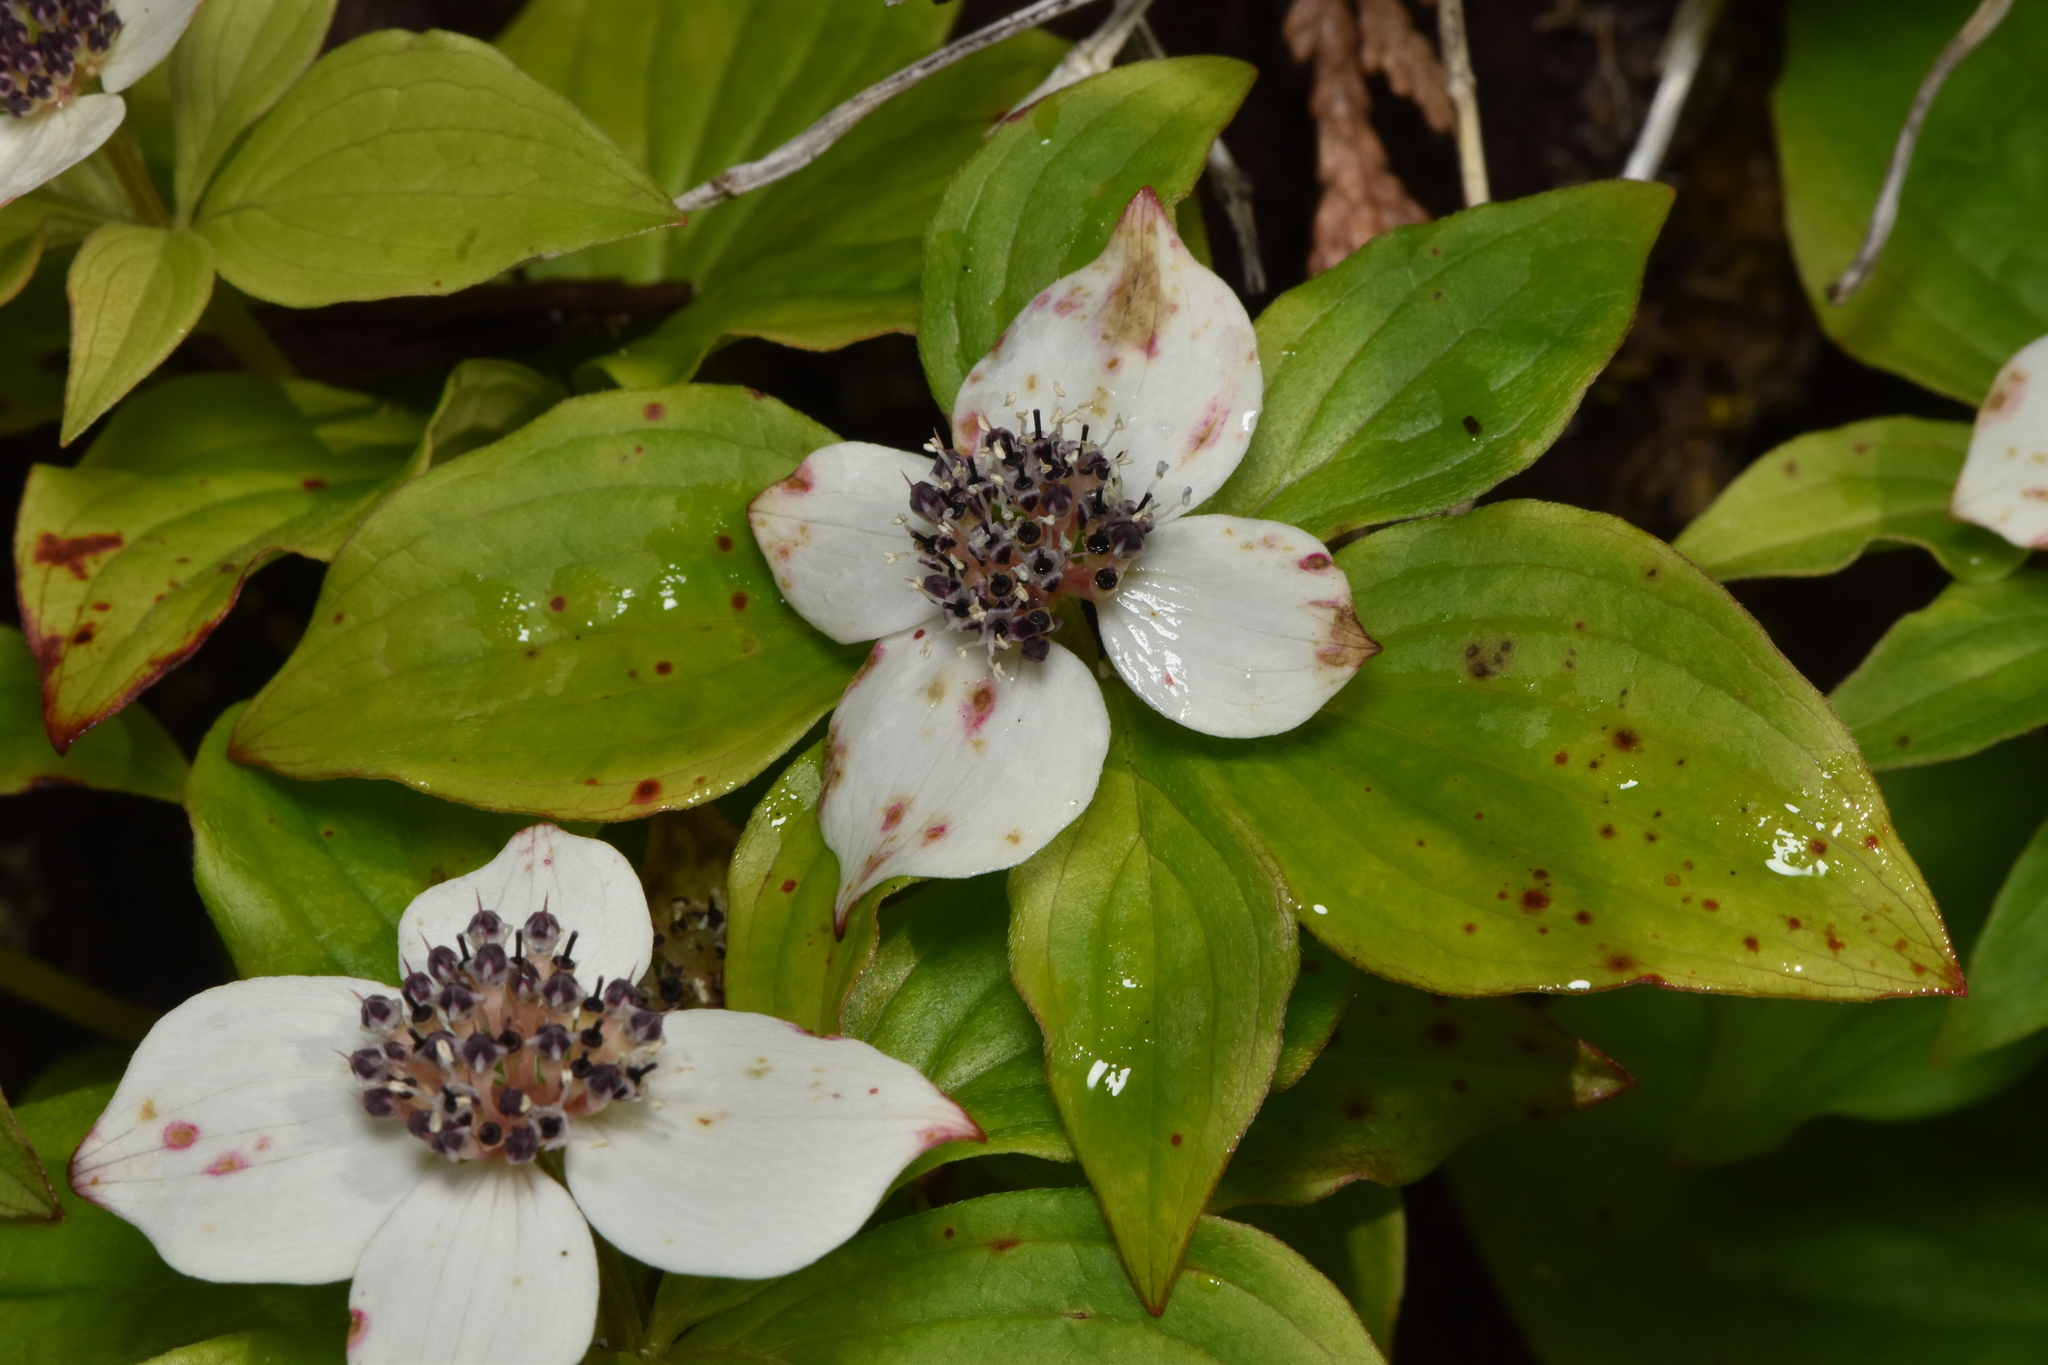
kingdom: Plantae
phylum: Tracheophyta
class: Magnoliopsida
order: Cornales
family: Cornaceae
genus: Cornus
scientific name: Cornus unalaschkensis
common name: Alaska bunchberry
